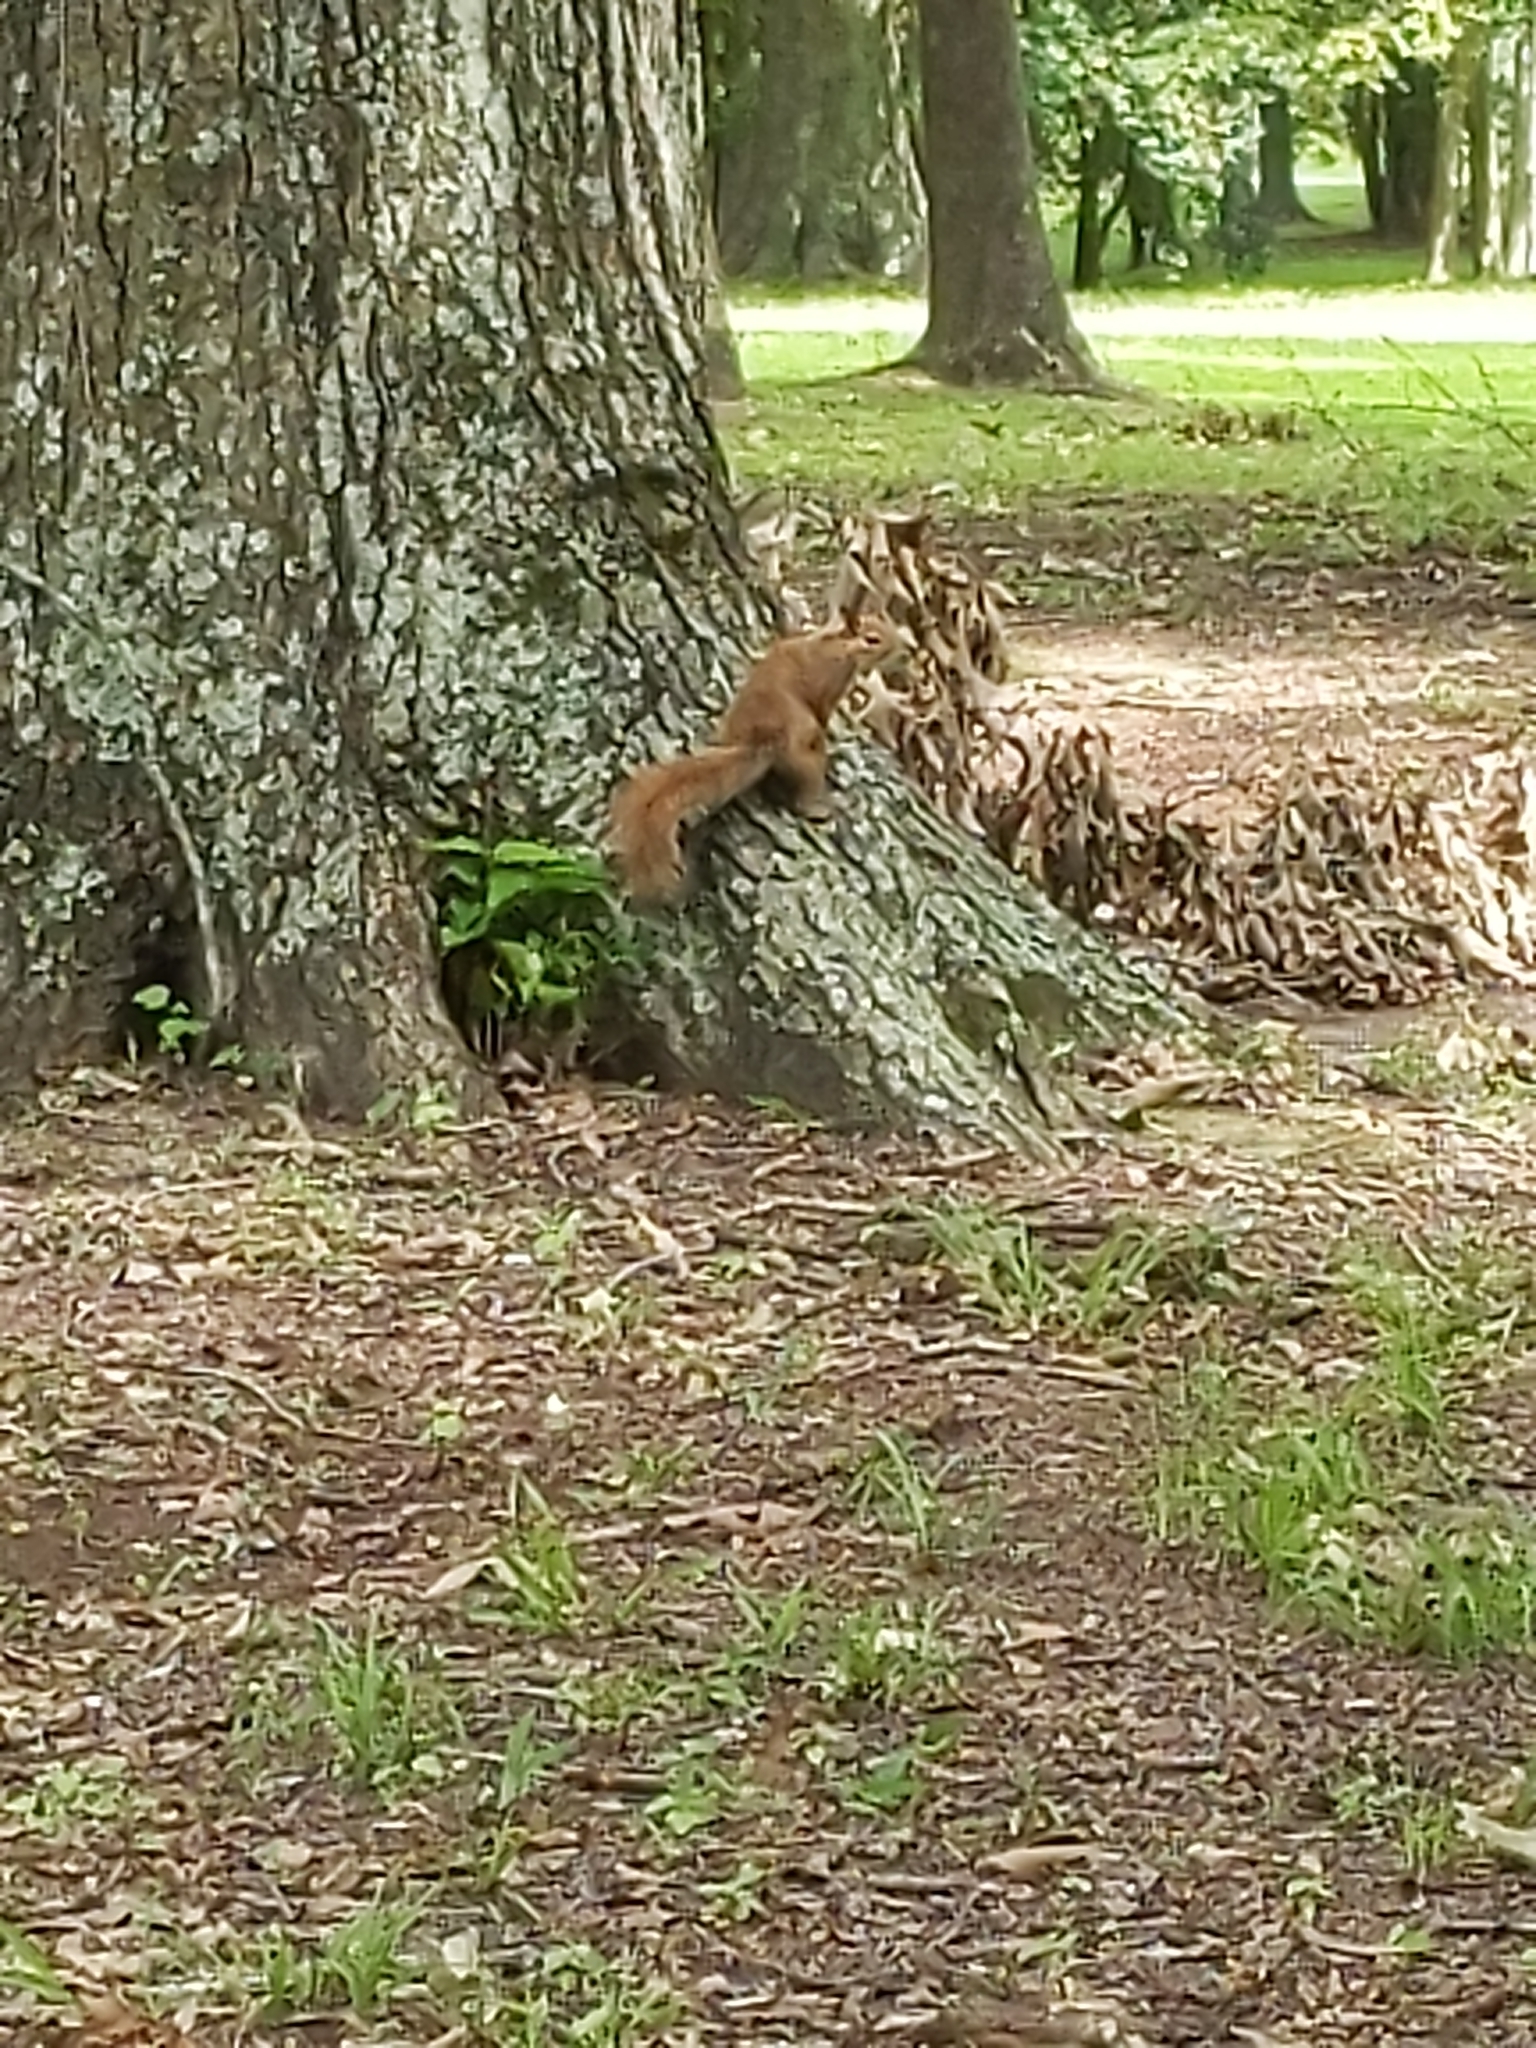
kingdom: Animalia
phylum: Chordata
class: Mammalia
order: Rodentia
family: Sciuridae
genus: Sciurus
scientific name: Sciurus carolinensis
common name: Eastern gray squirrel
